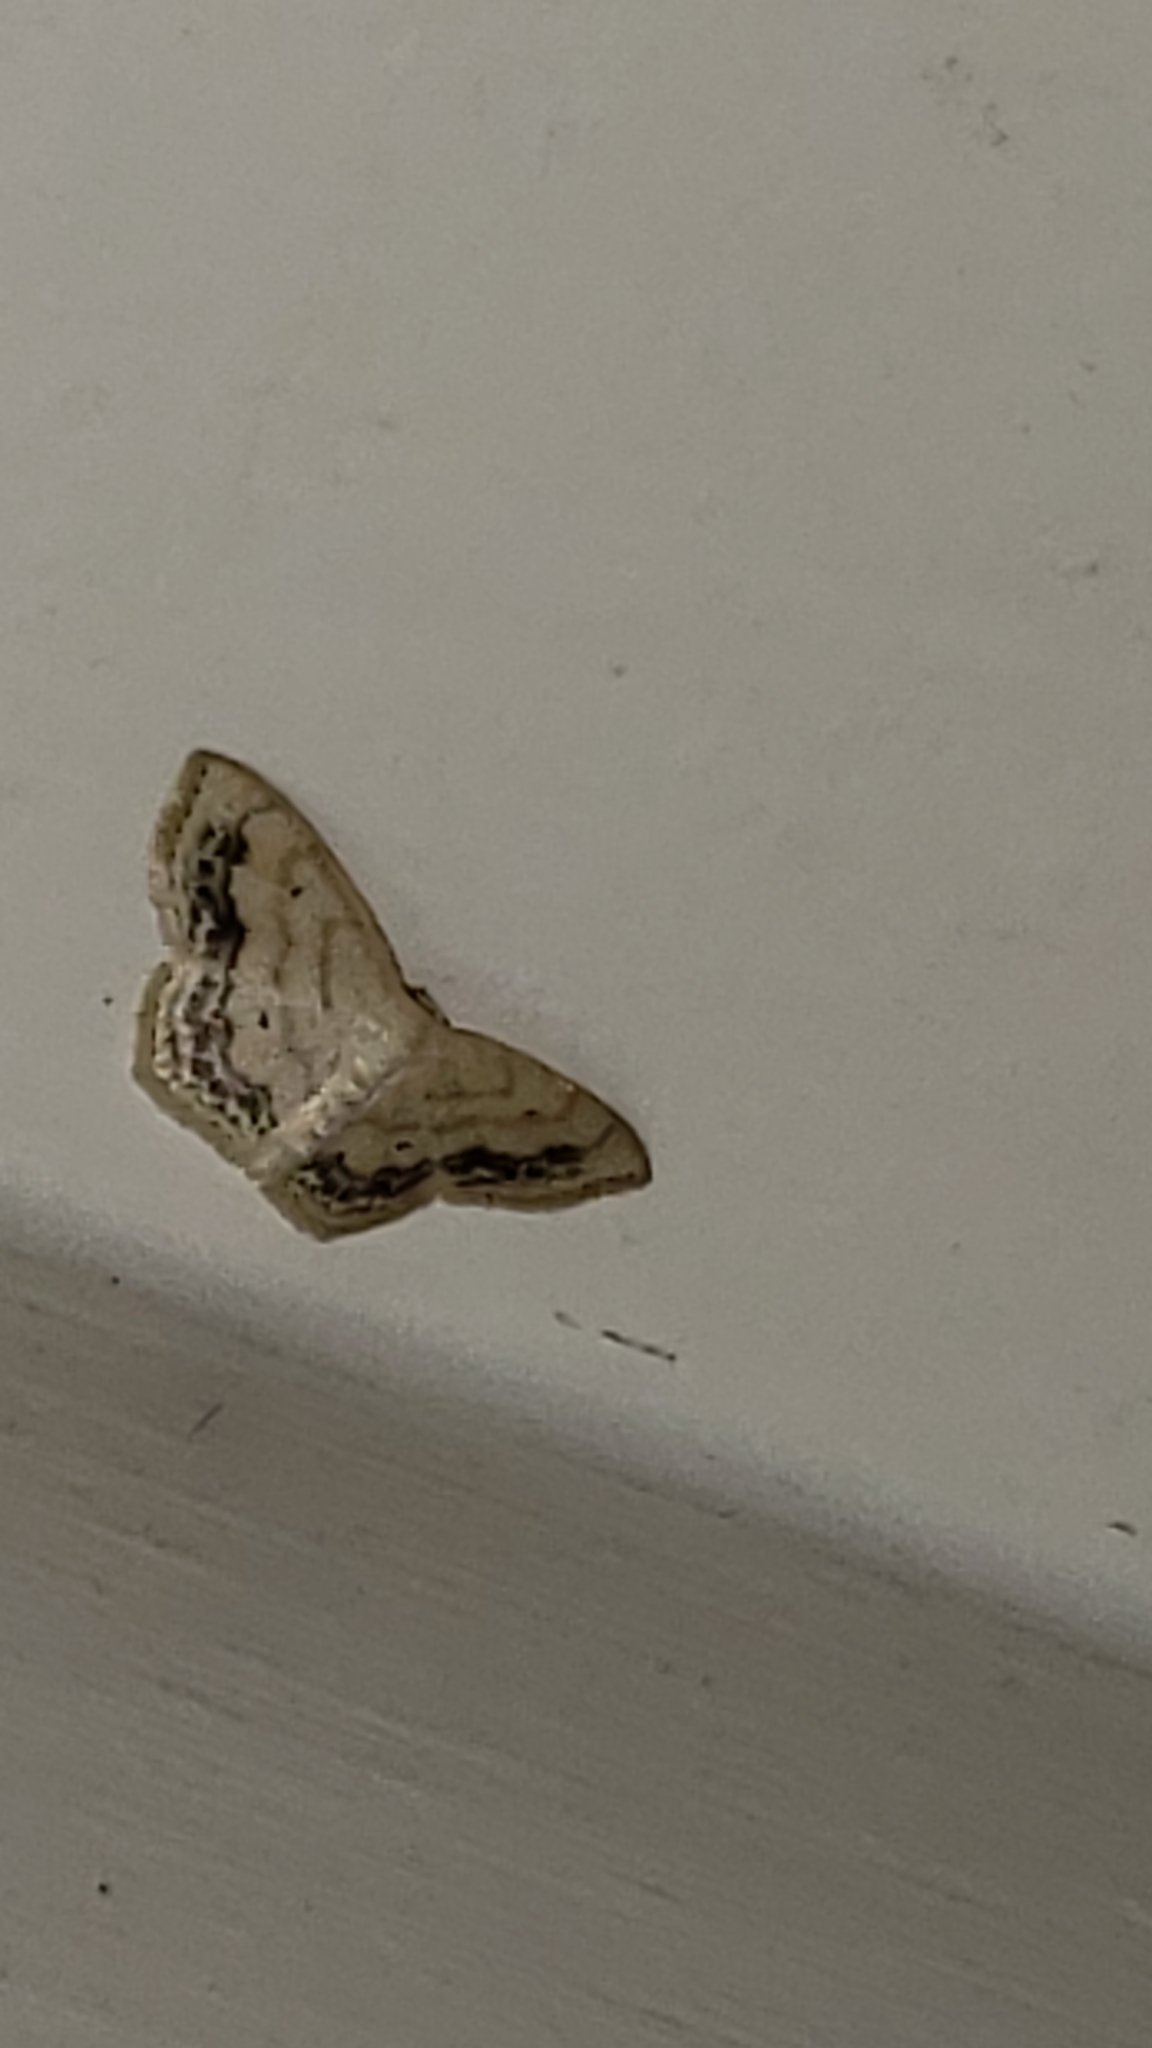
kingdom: Animalia
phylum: Arthropoda
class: Insecta
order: Lepidoptera
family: Geometridae
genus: Scopula
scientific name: Scopula limboundata
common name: Large lace border
